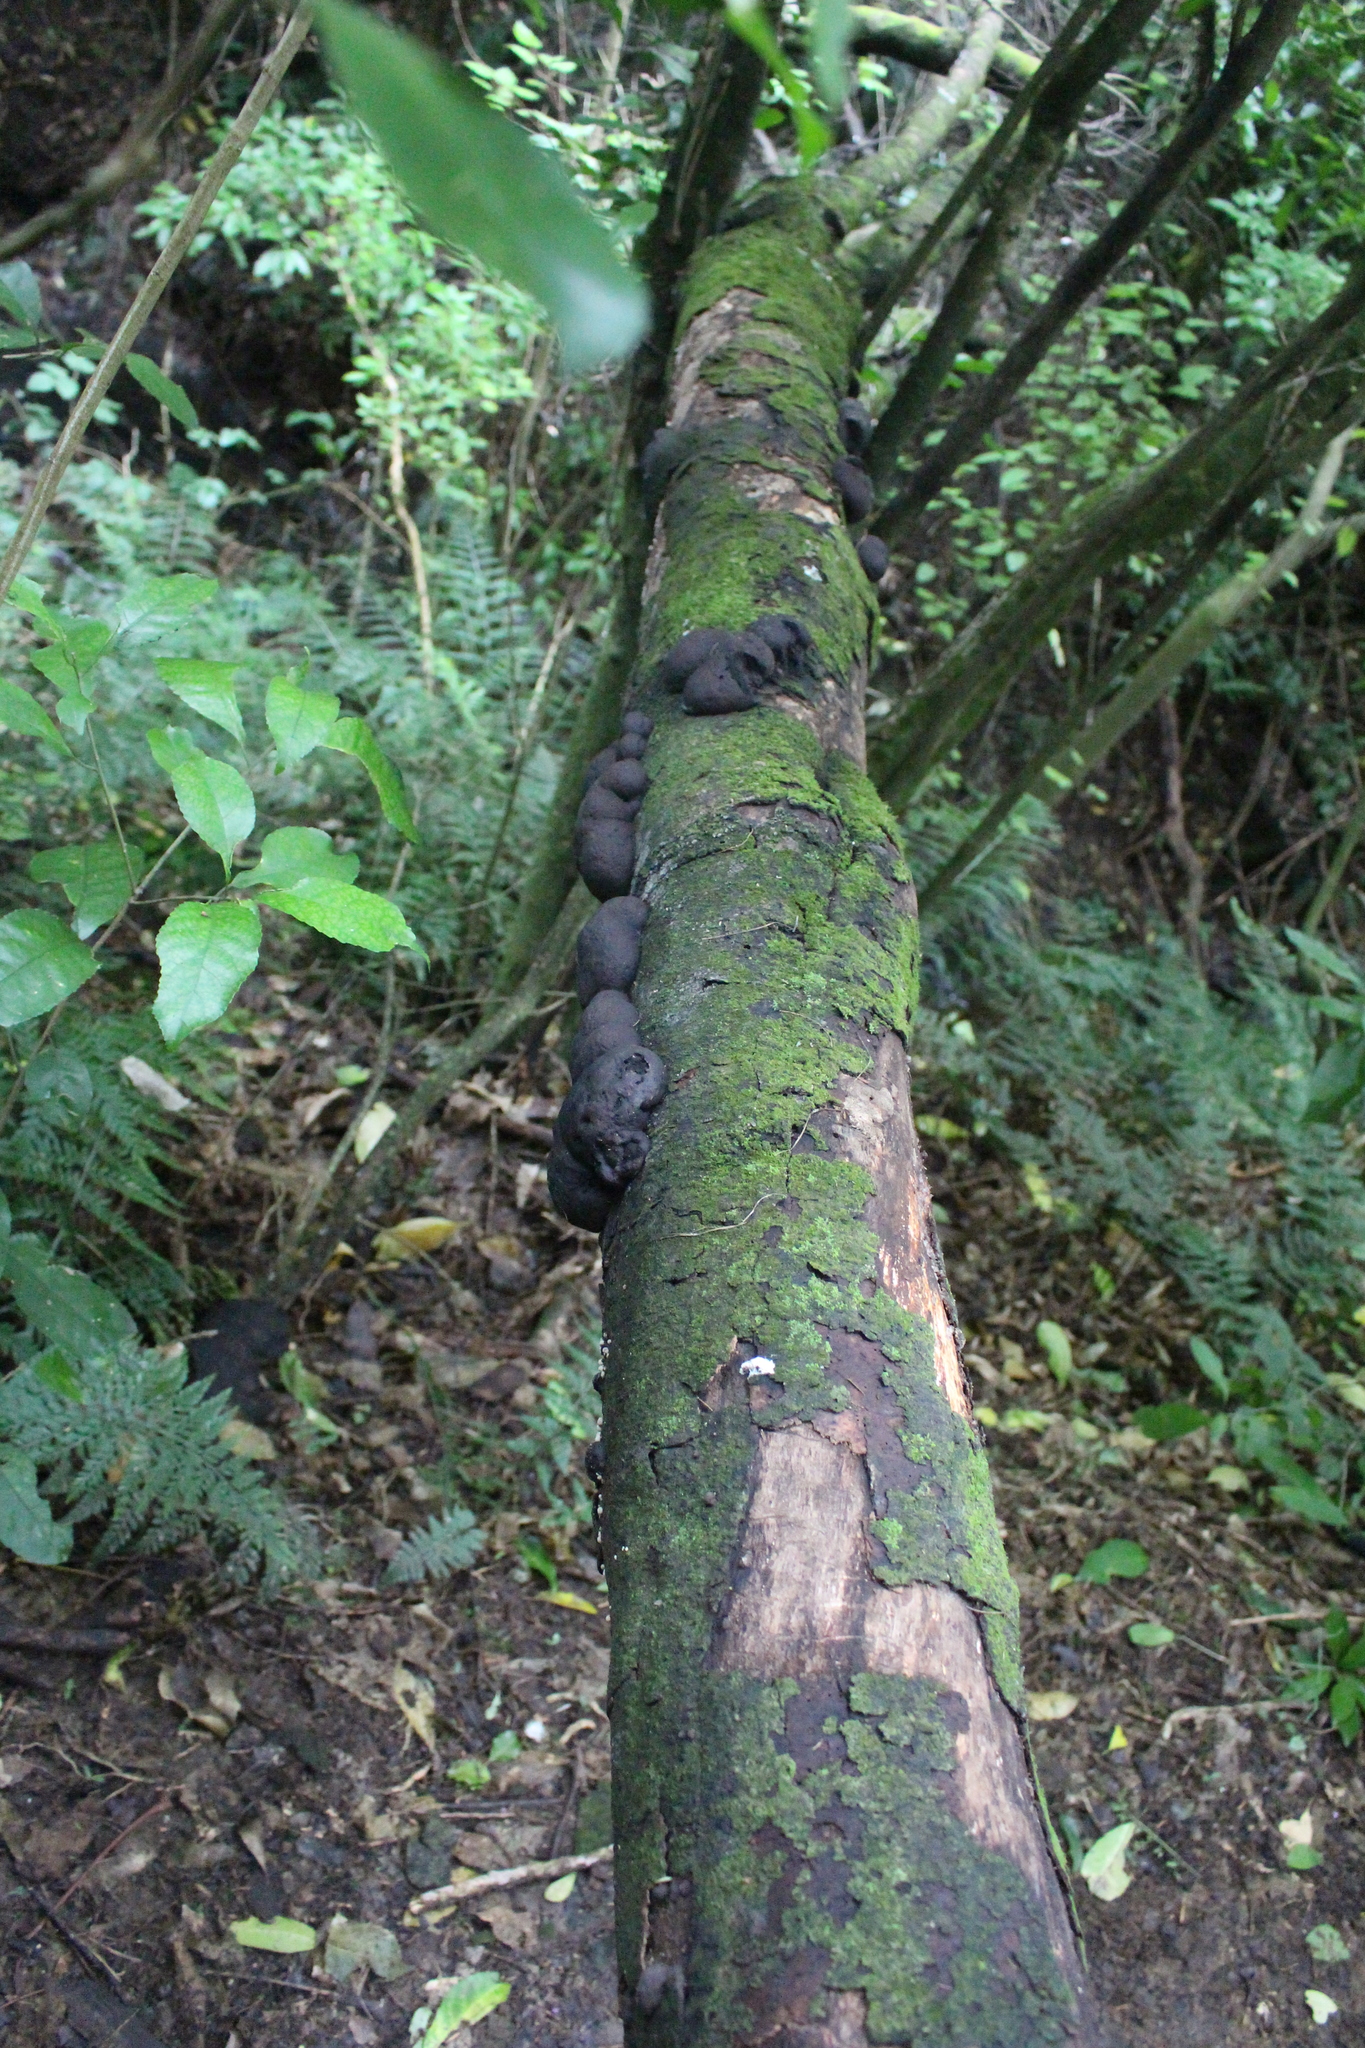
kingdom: Fungi
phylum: Ascomycota
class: Sordariomycetes
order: Xylariales
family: Hypoxylaceae
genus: Daldinia
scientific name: Daldinia
